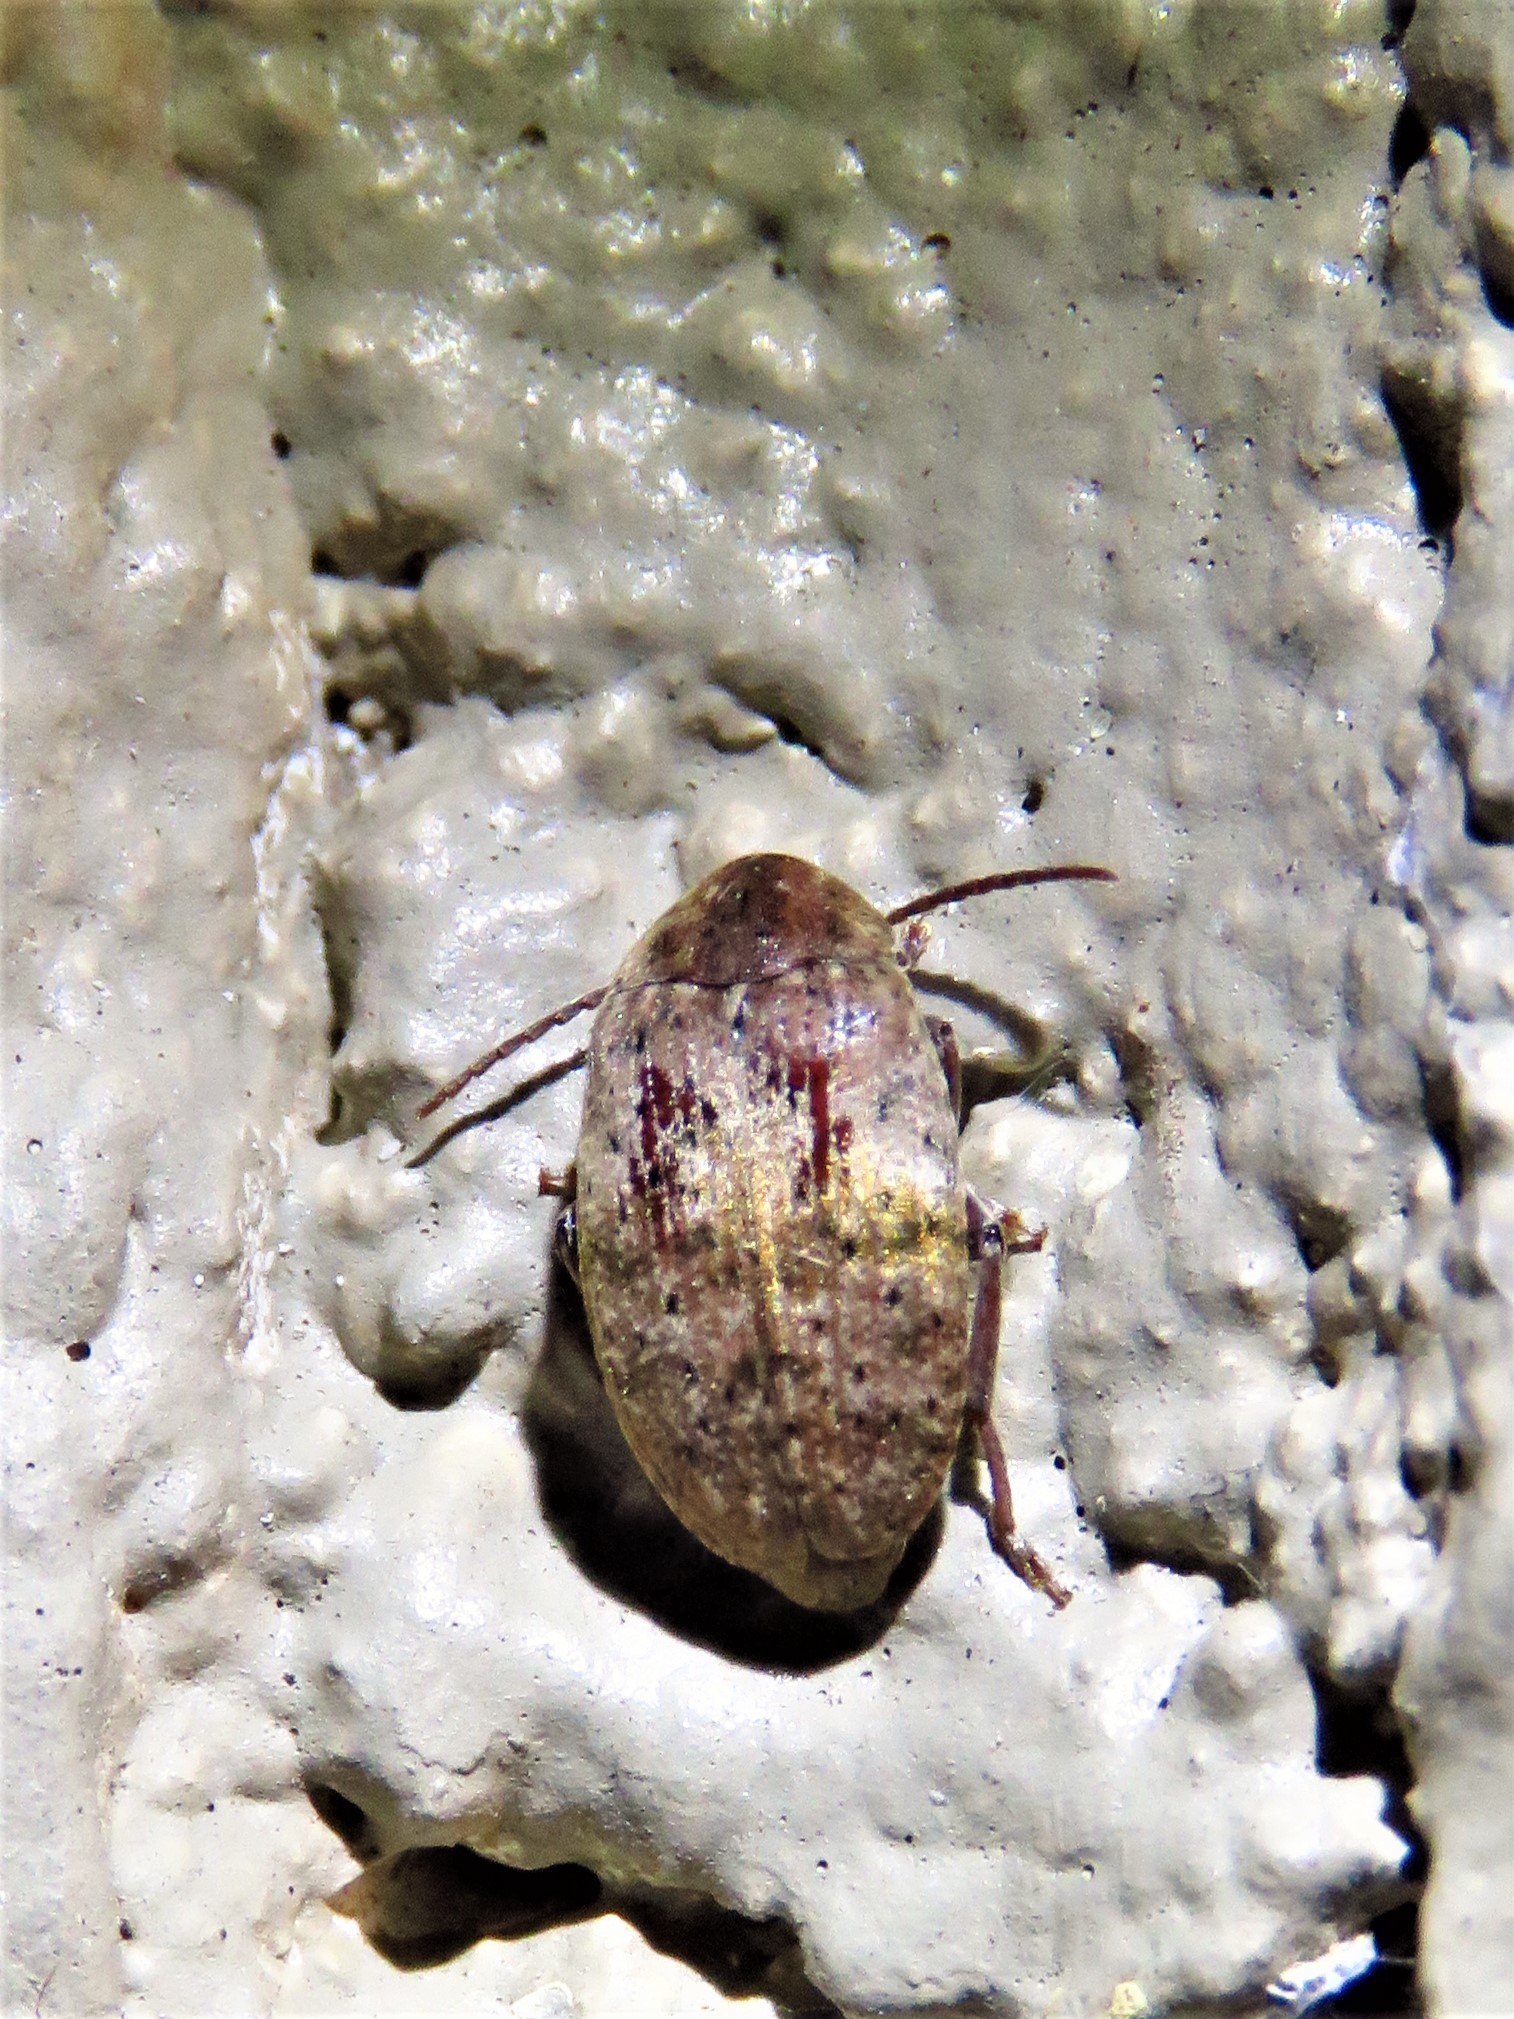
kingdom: Animalia
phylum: Arthropoda
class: Insecta
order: Coleoptera
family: Chrysomelidae
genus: Amblycerus
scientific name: Amblycerus robiniae
